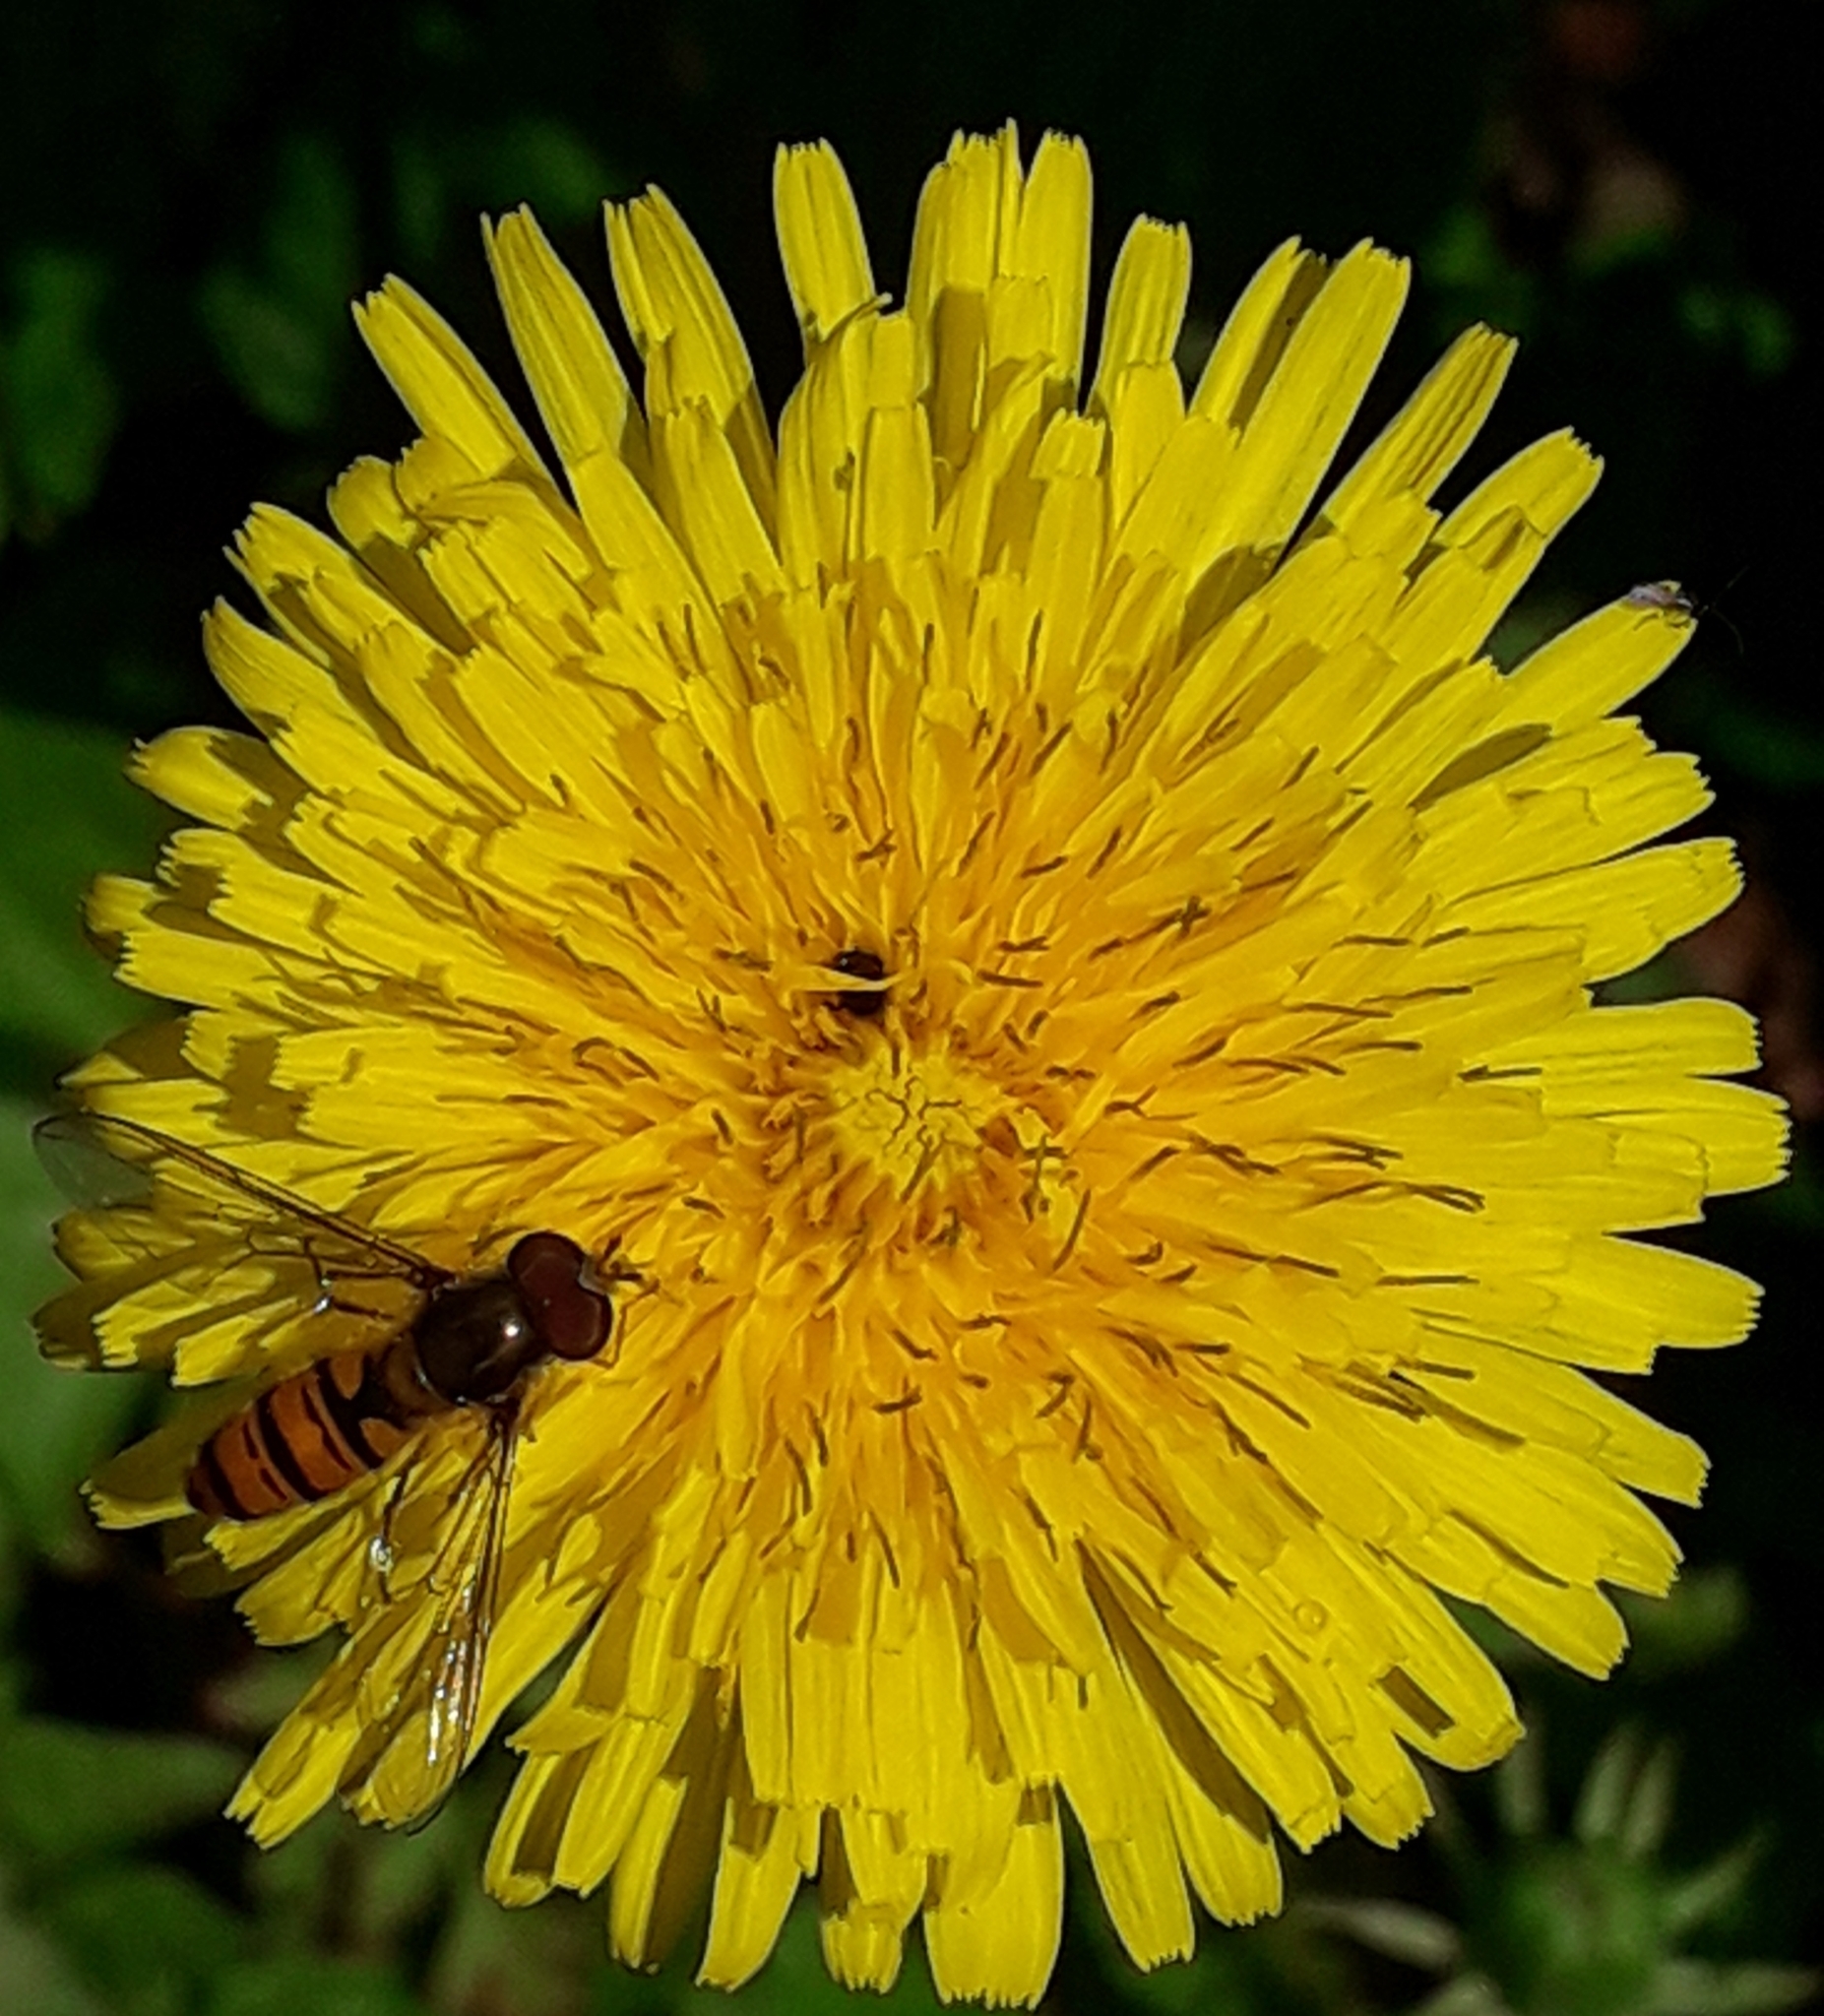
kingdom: Plantae
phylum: Tracheophyta
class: Magnoliopsida
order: Asterales
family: Asteraceae
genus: Taraxacum
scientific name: Taraxacum officinale
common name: Common dandelion
